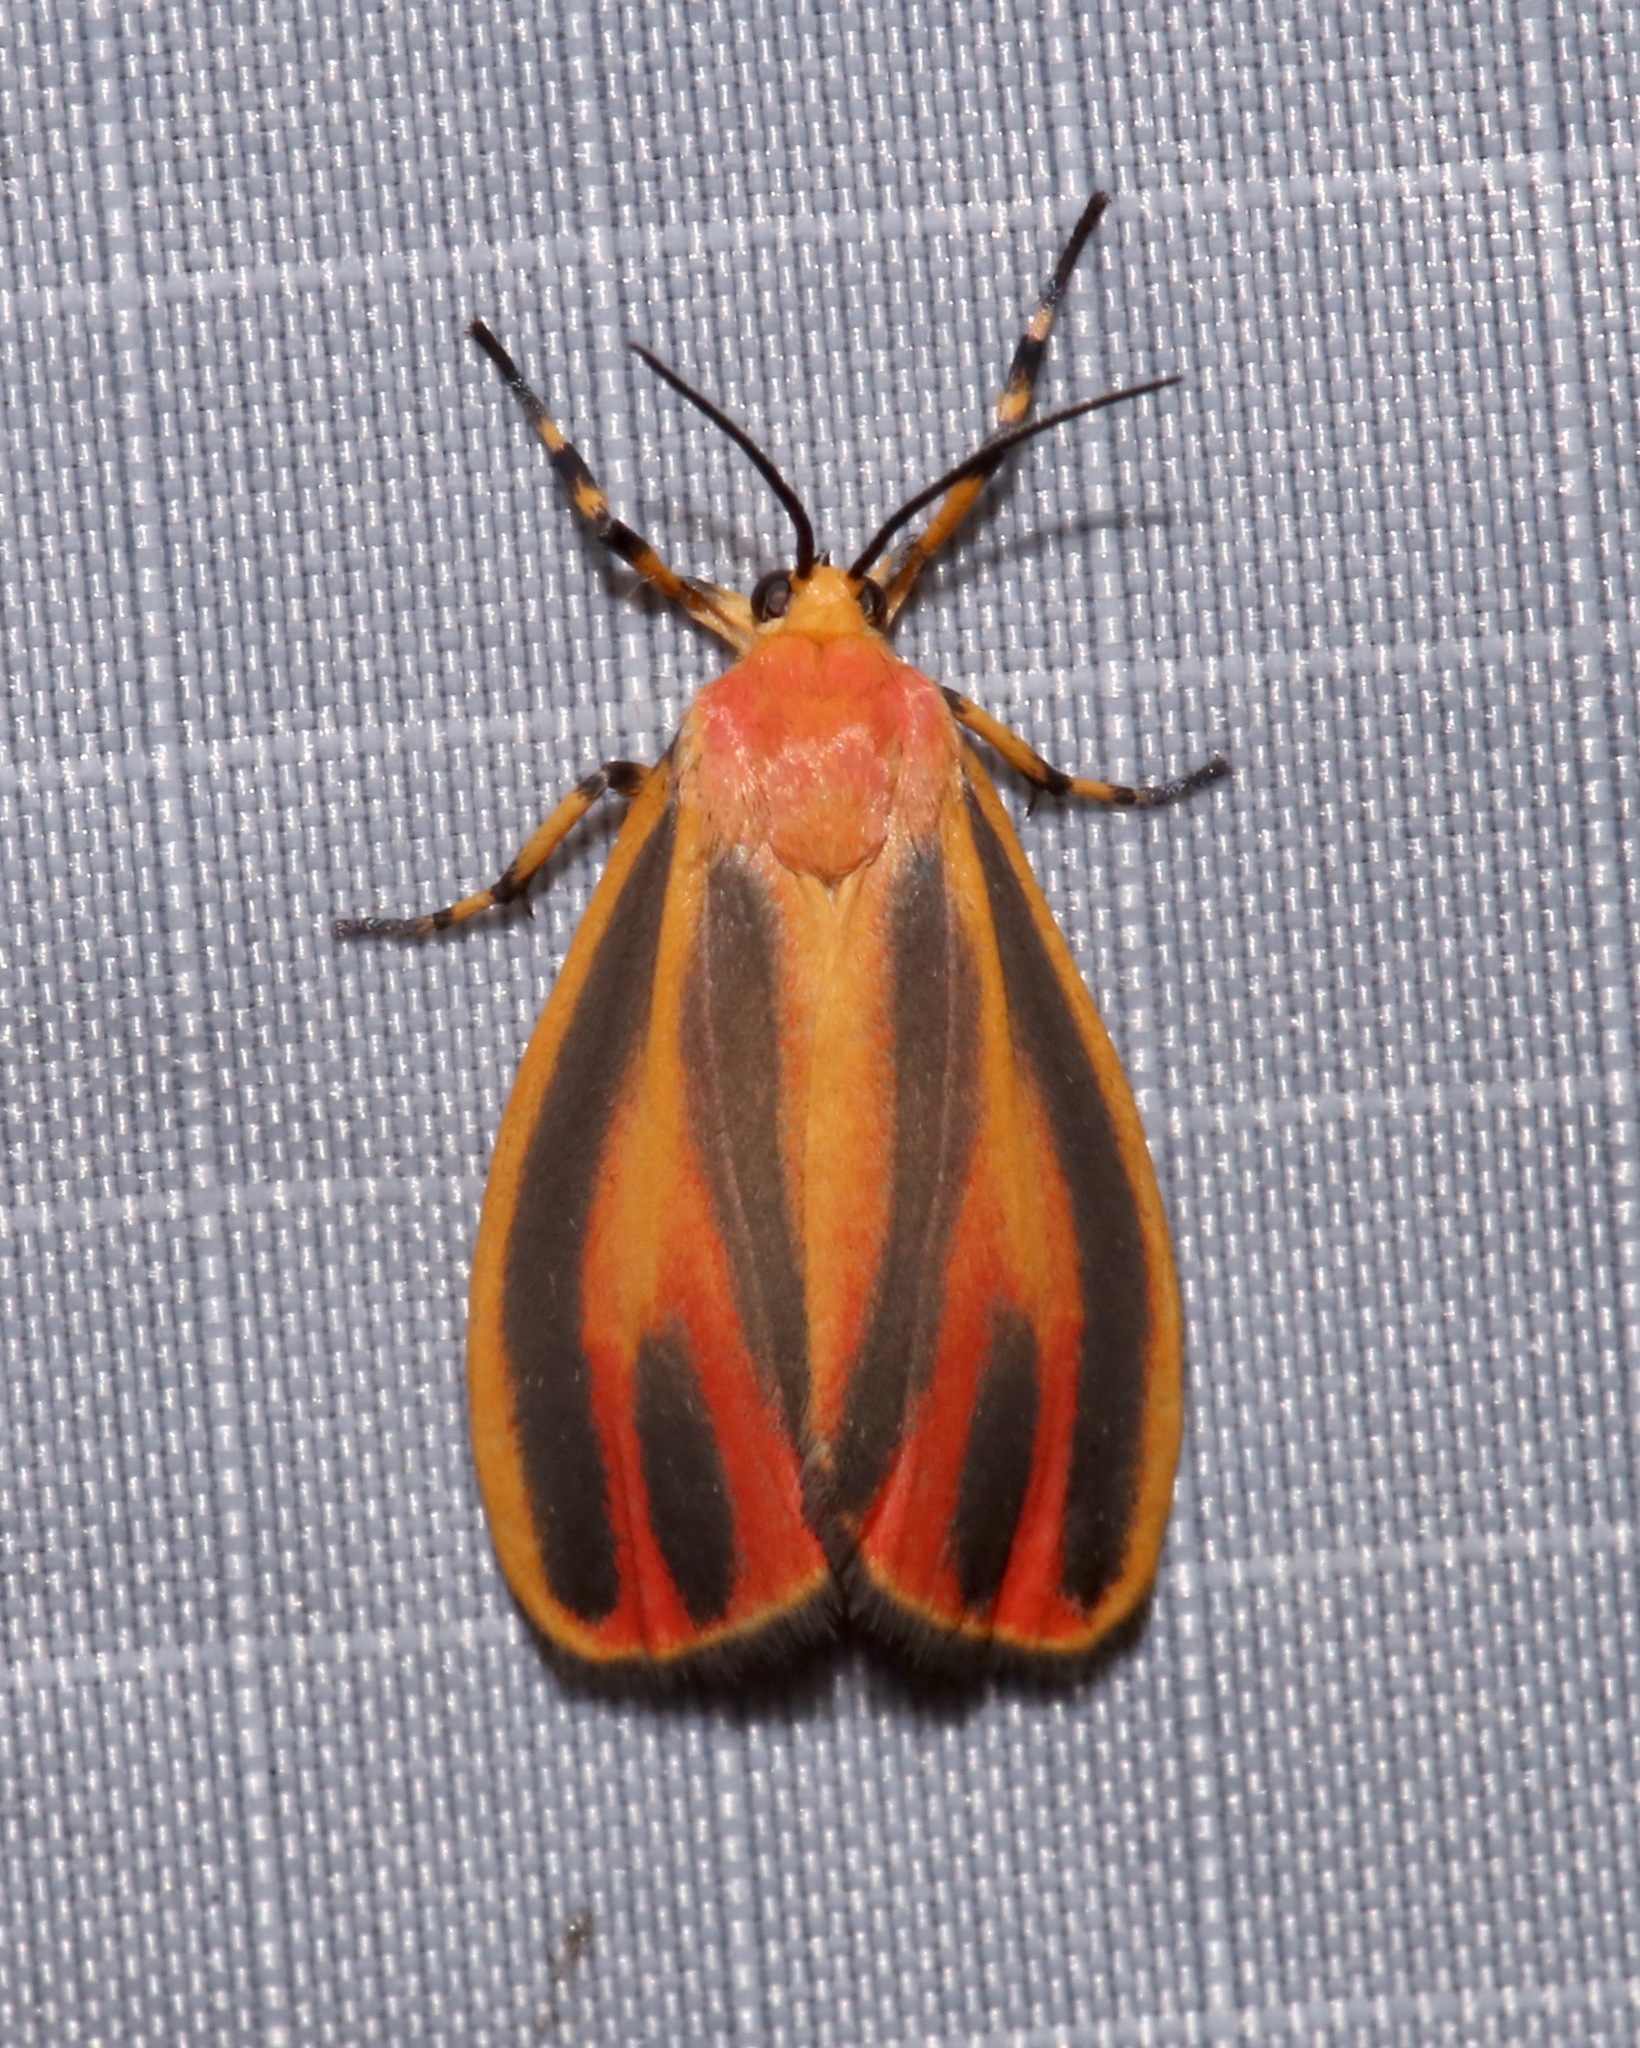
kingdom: Animalia
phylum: Arthropoda
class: Insecta
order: Lepidoptera
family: Erebidae
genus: Hypoprepia
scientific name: Hypoprepia fucosa
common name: Painted lichen moth
